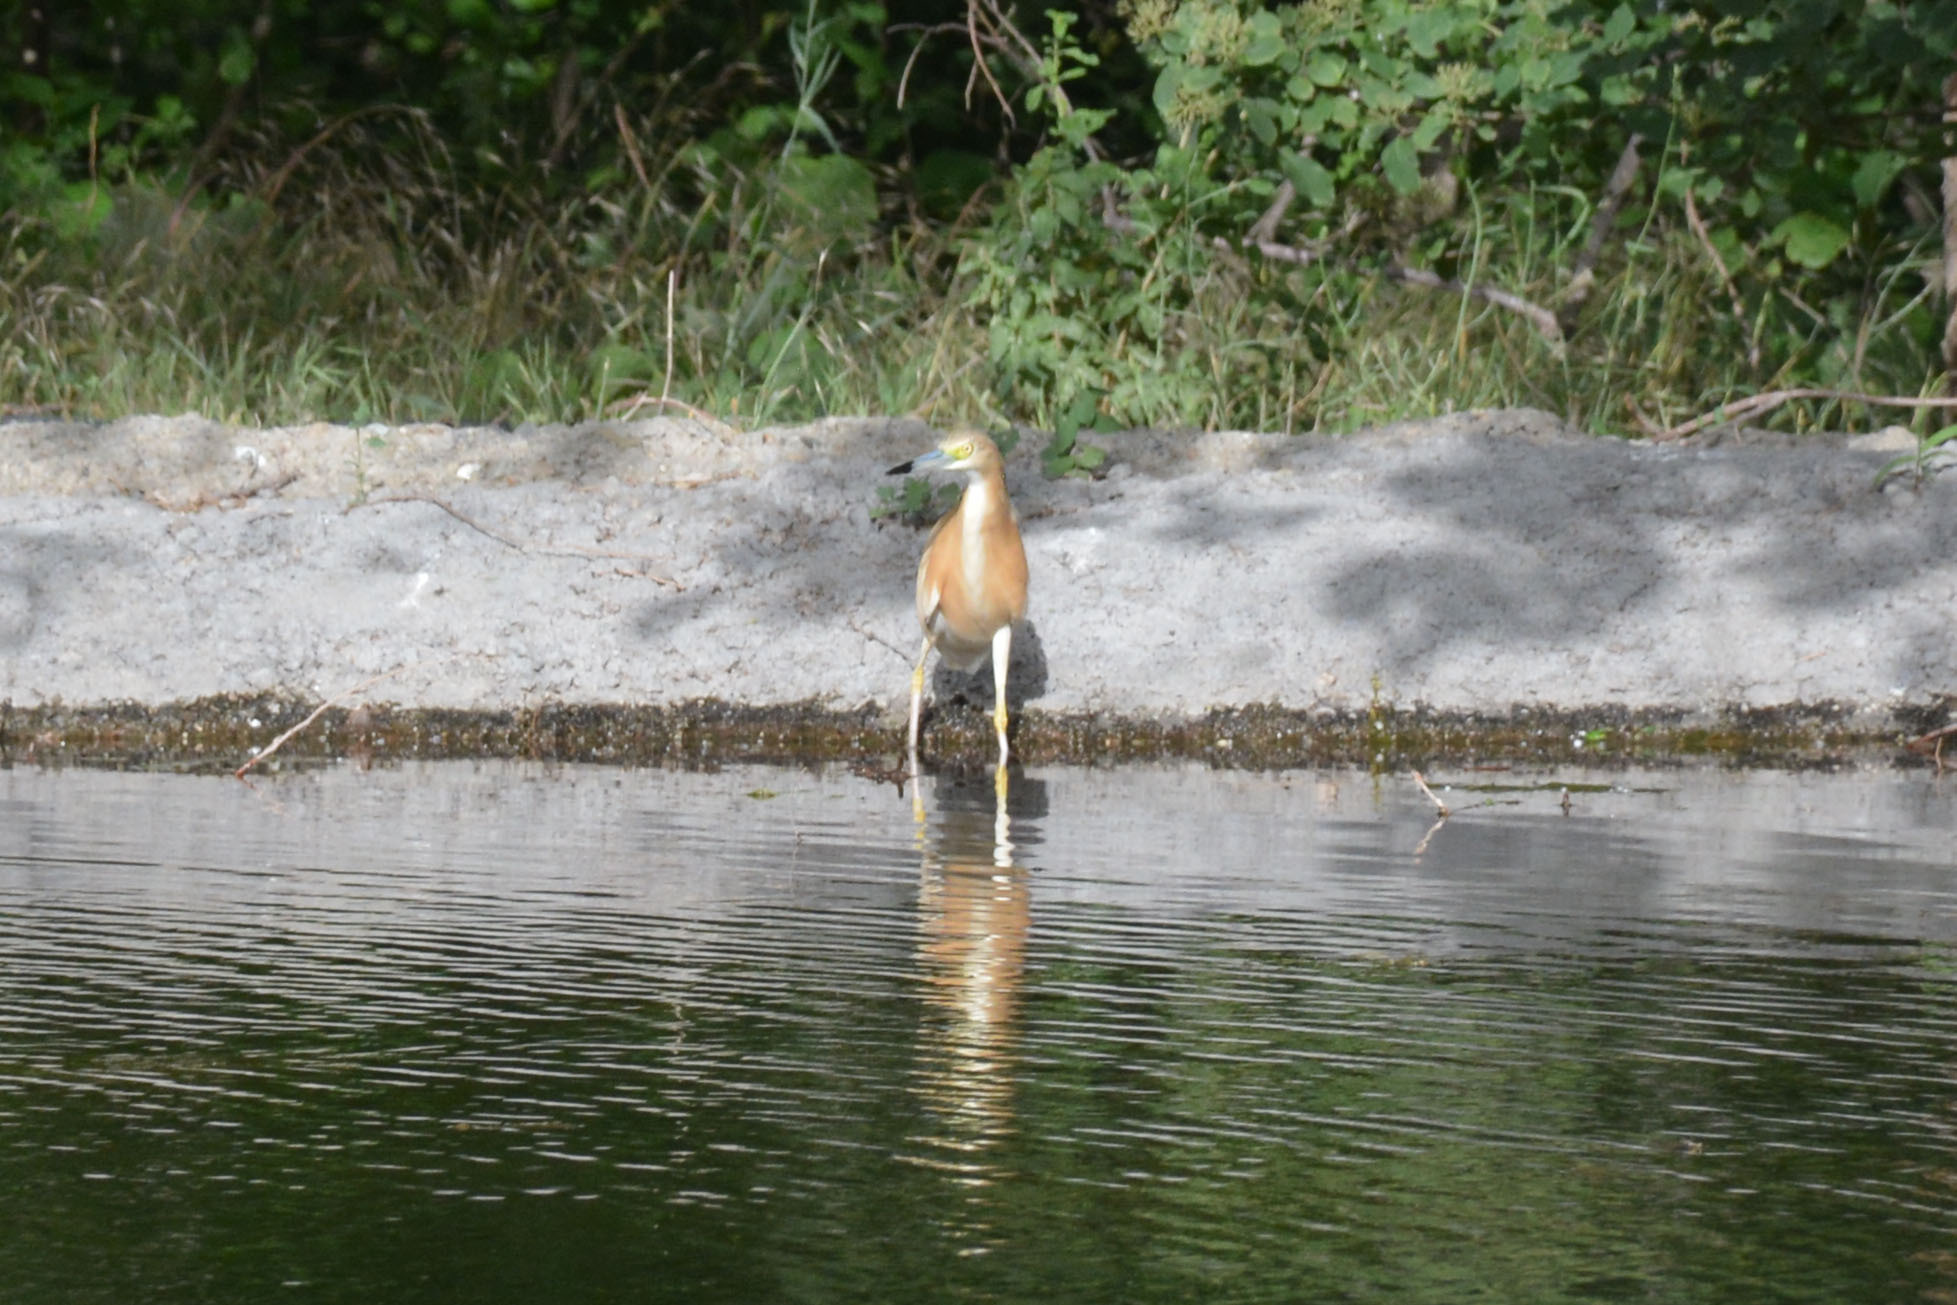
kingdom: Animalia
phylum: Chordata
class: Aves
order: Pelecaniformes
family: Ardeidae
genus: Ardeola
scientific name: Ardeola ralloides
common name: Squacco heron
